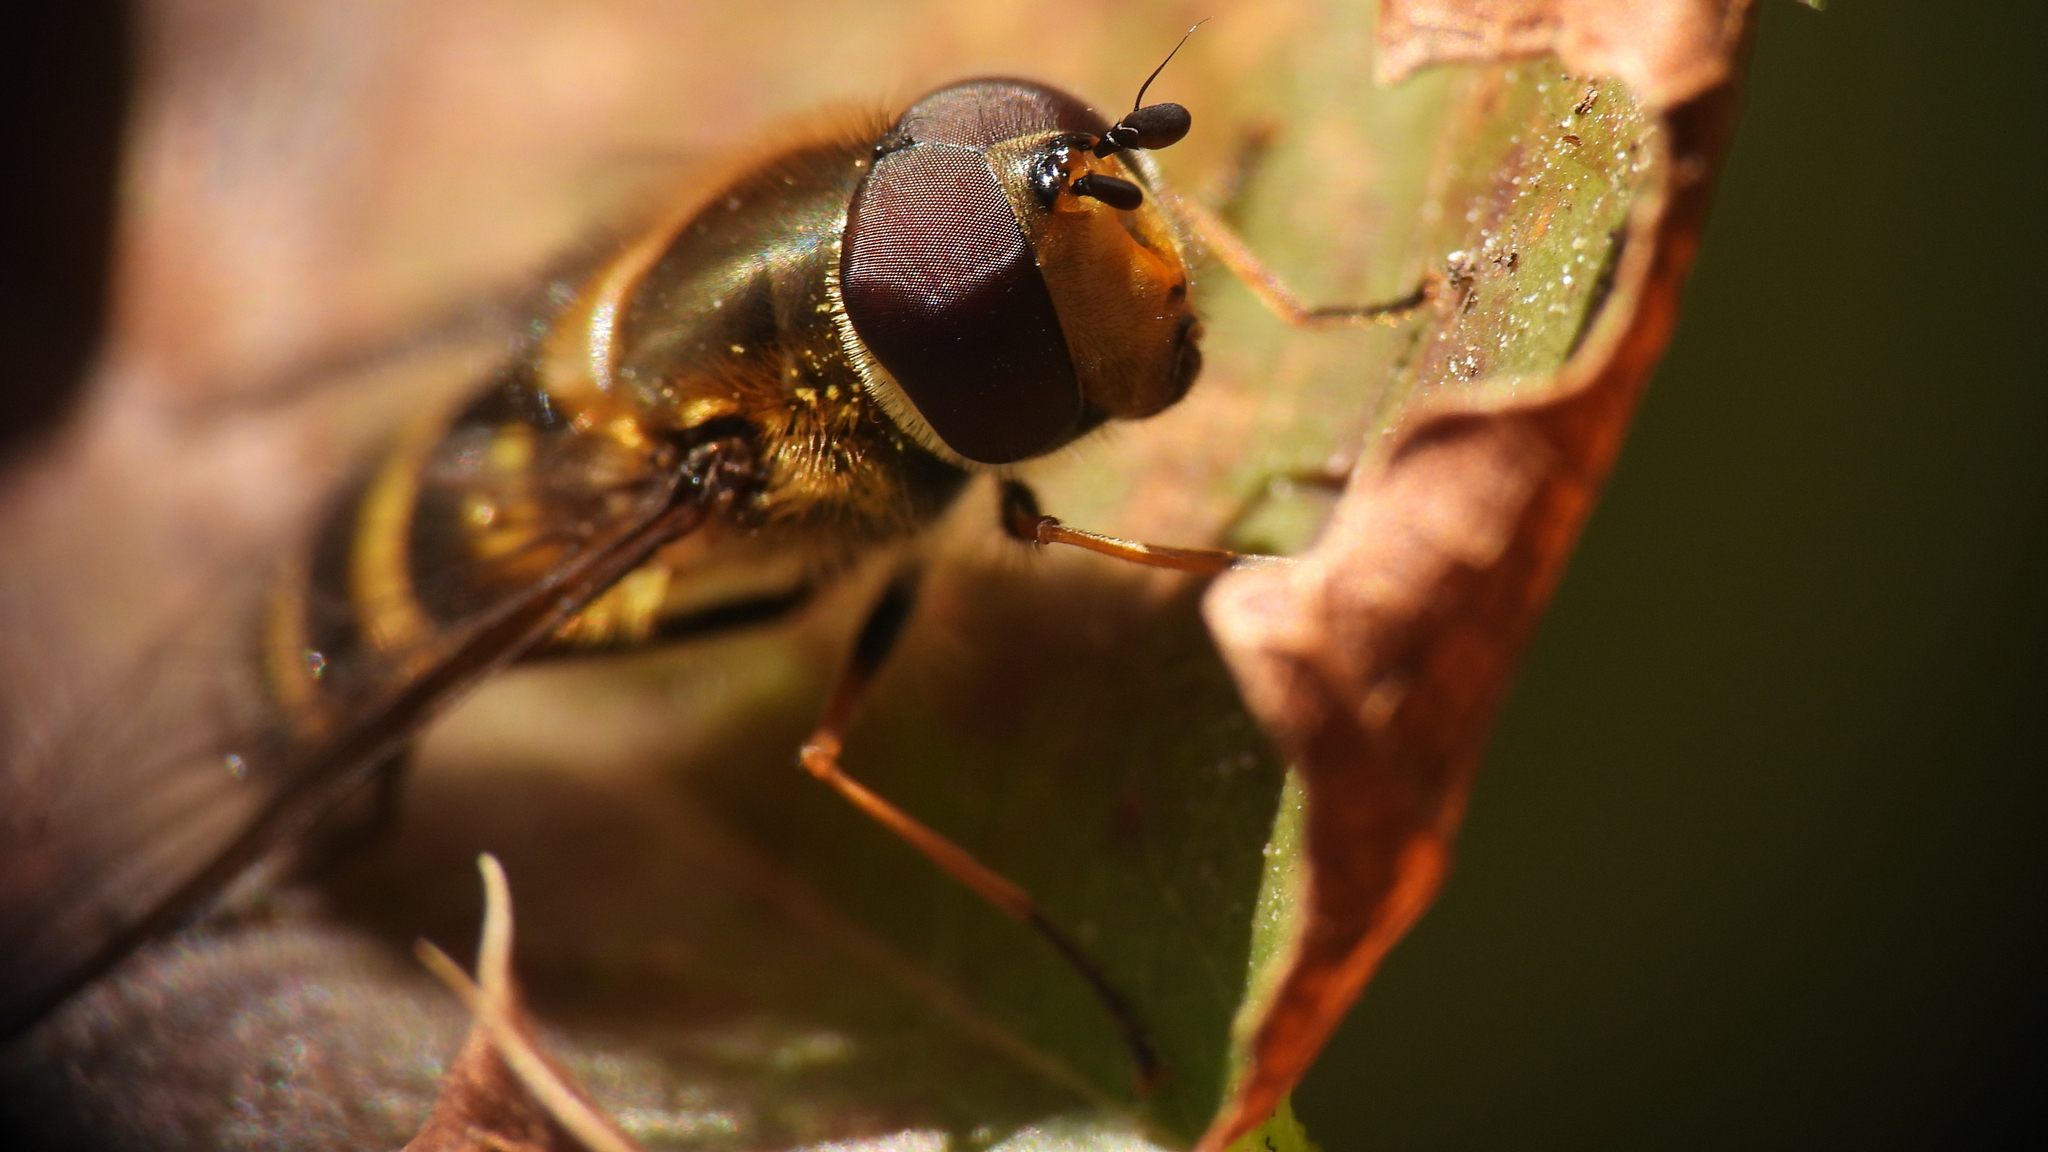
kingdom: Animalia
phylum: Arthropoda
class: Insecta
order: Diptera
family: Syrphidae
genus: Syrphus
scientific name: Syrphus torvus
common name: Hairy-eyed flower fly
